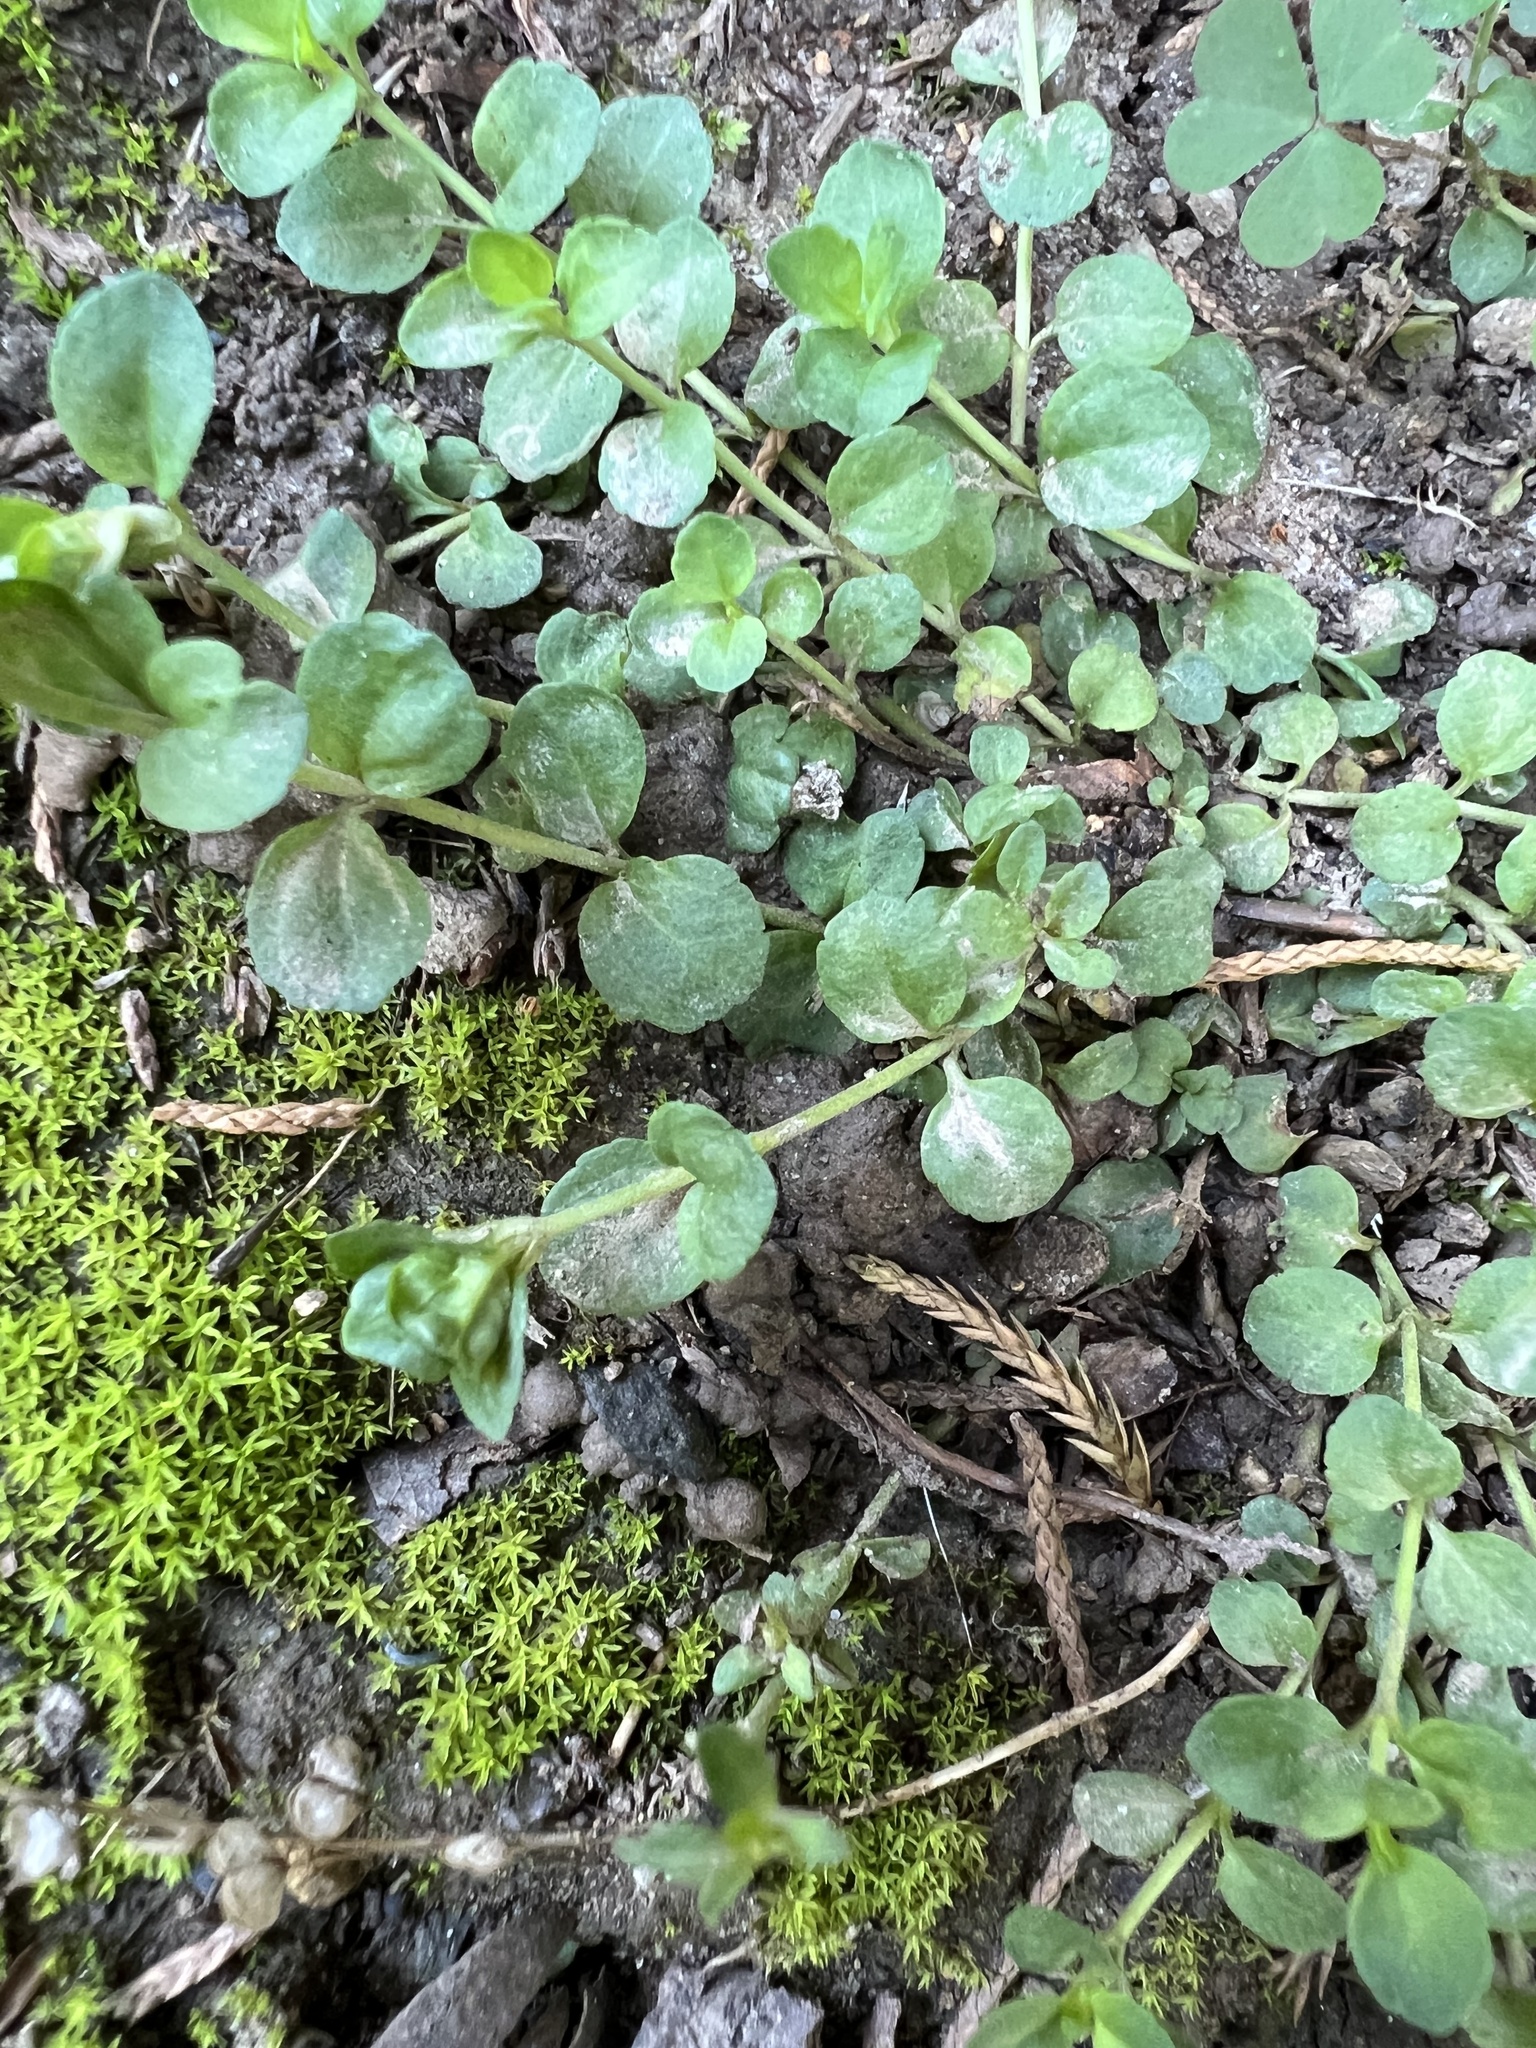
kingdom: Plantae
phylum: Tracheophyta
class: Magnoliopsida
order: Lamiales
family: Plantaginaceae
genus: Veronica
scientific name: Veronica serpyllifolia
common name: Thyme-leaved speedwell
